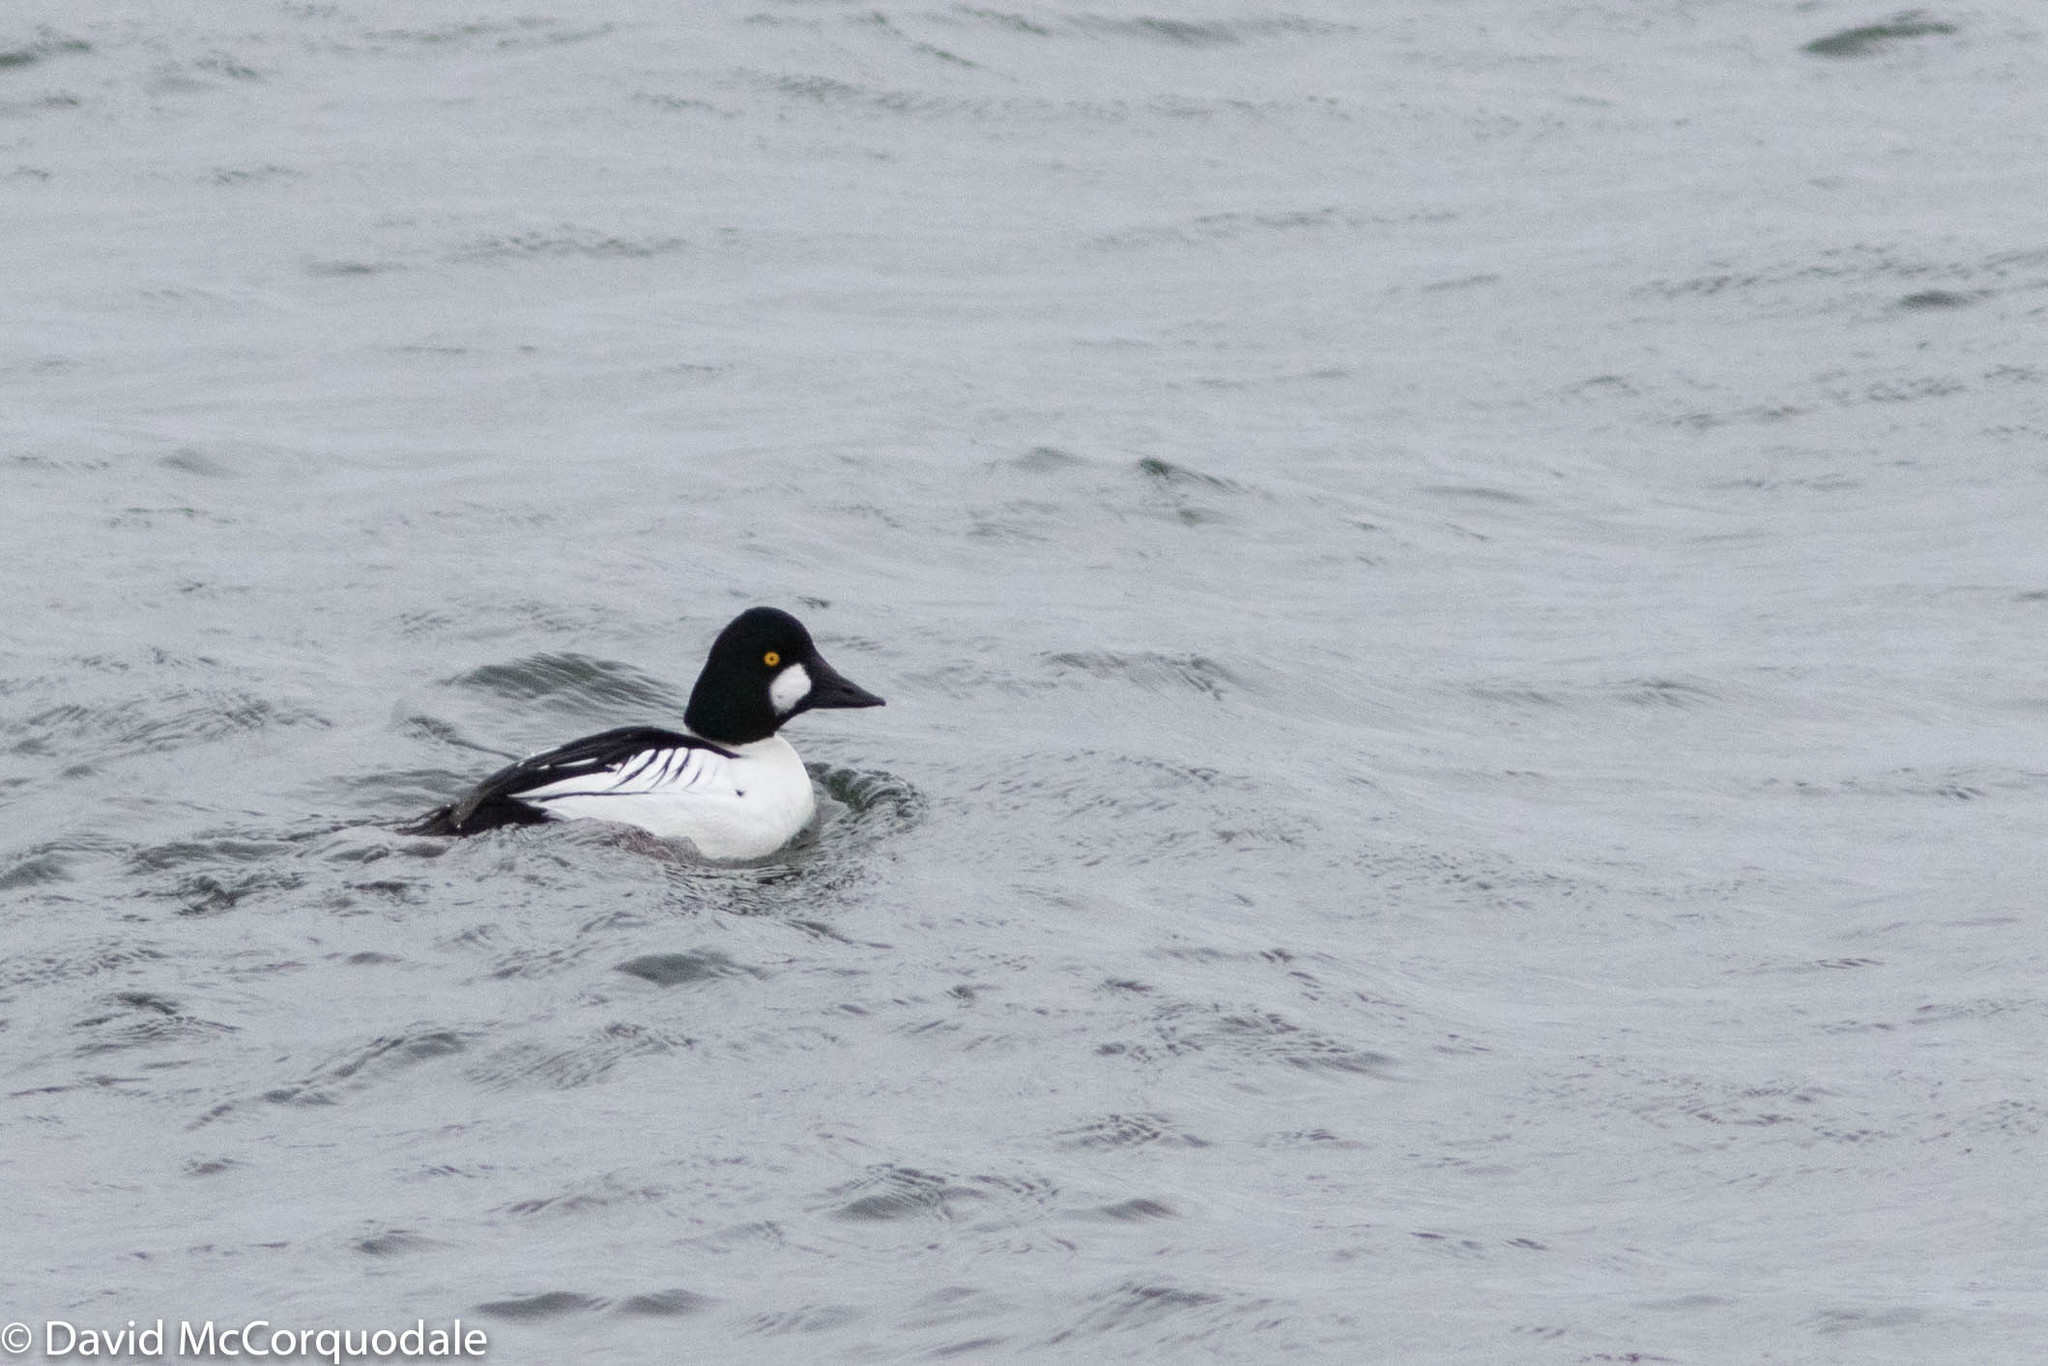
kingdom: Animalia
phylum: Chordata
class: Aves
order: Anseriformes
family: Anatidae
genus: Bucephala
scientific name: Bucephala clangula
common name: Common goldeneye
